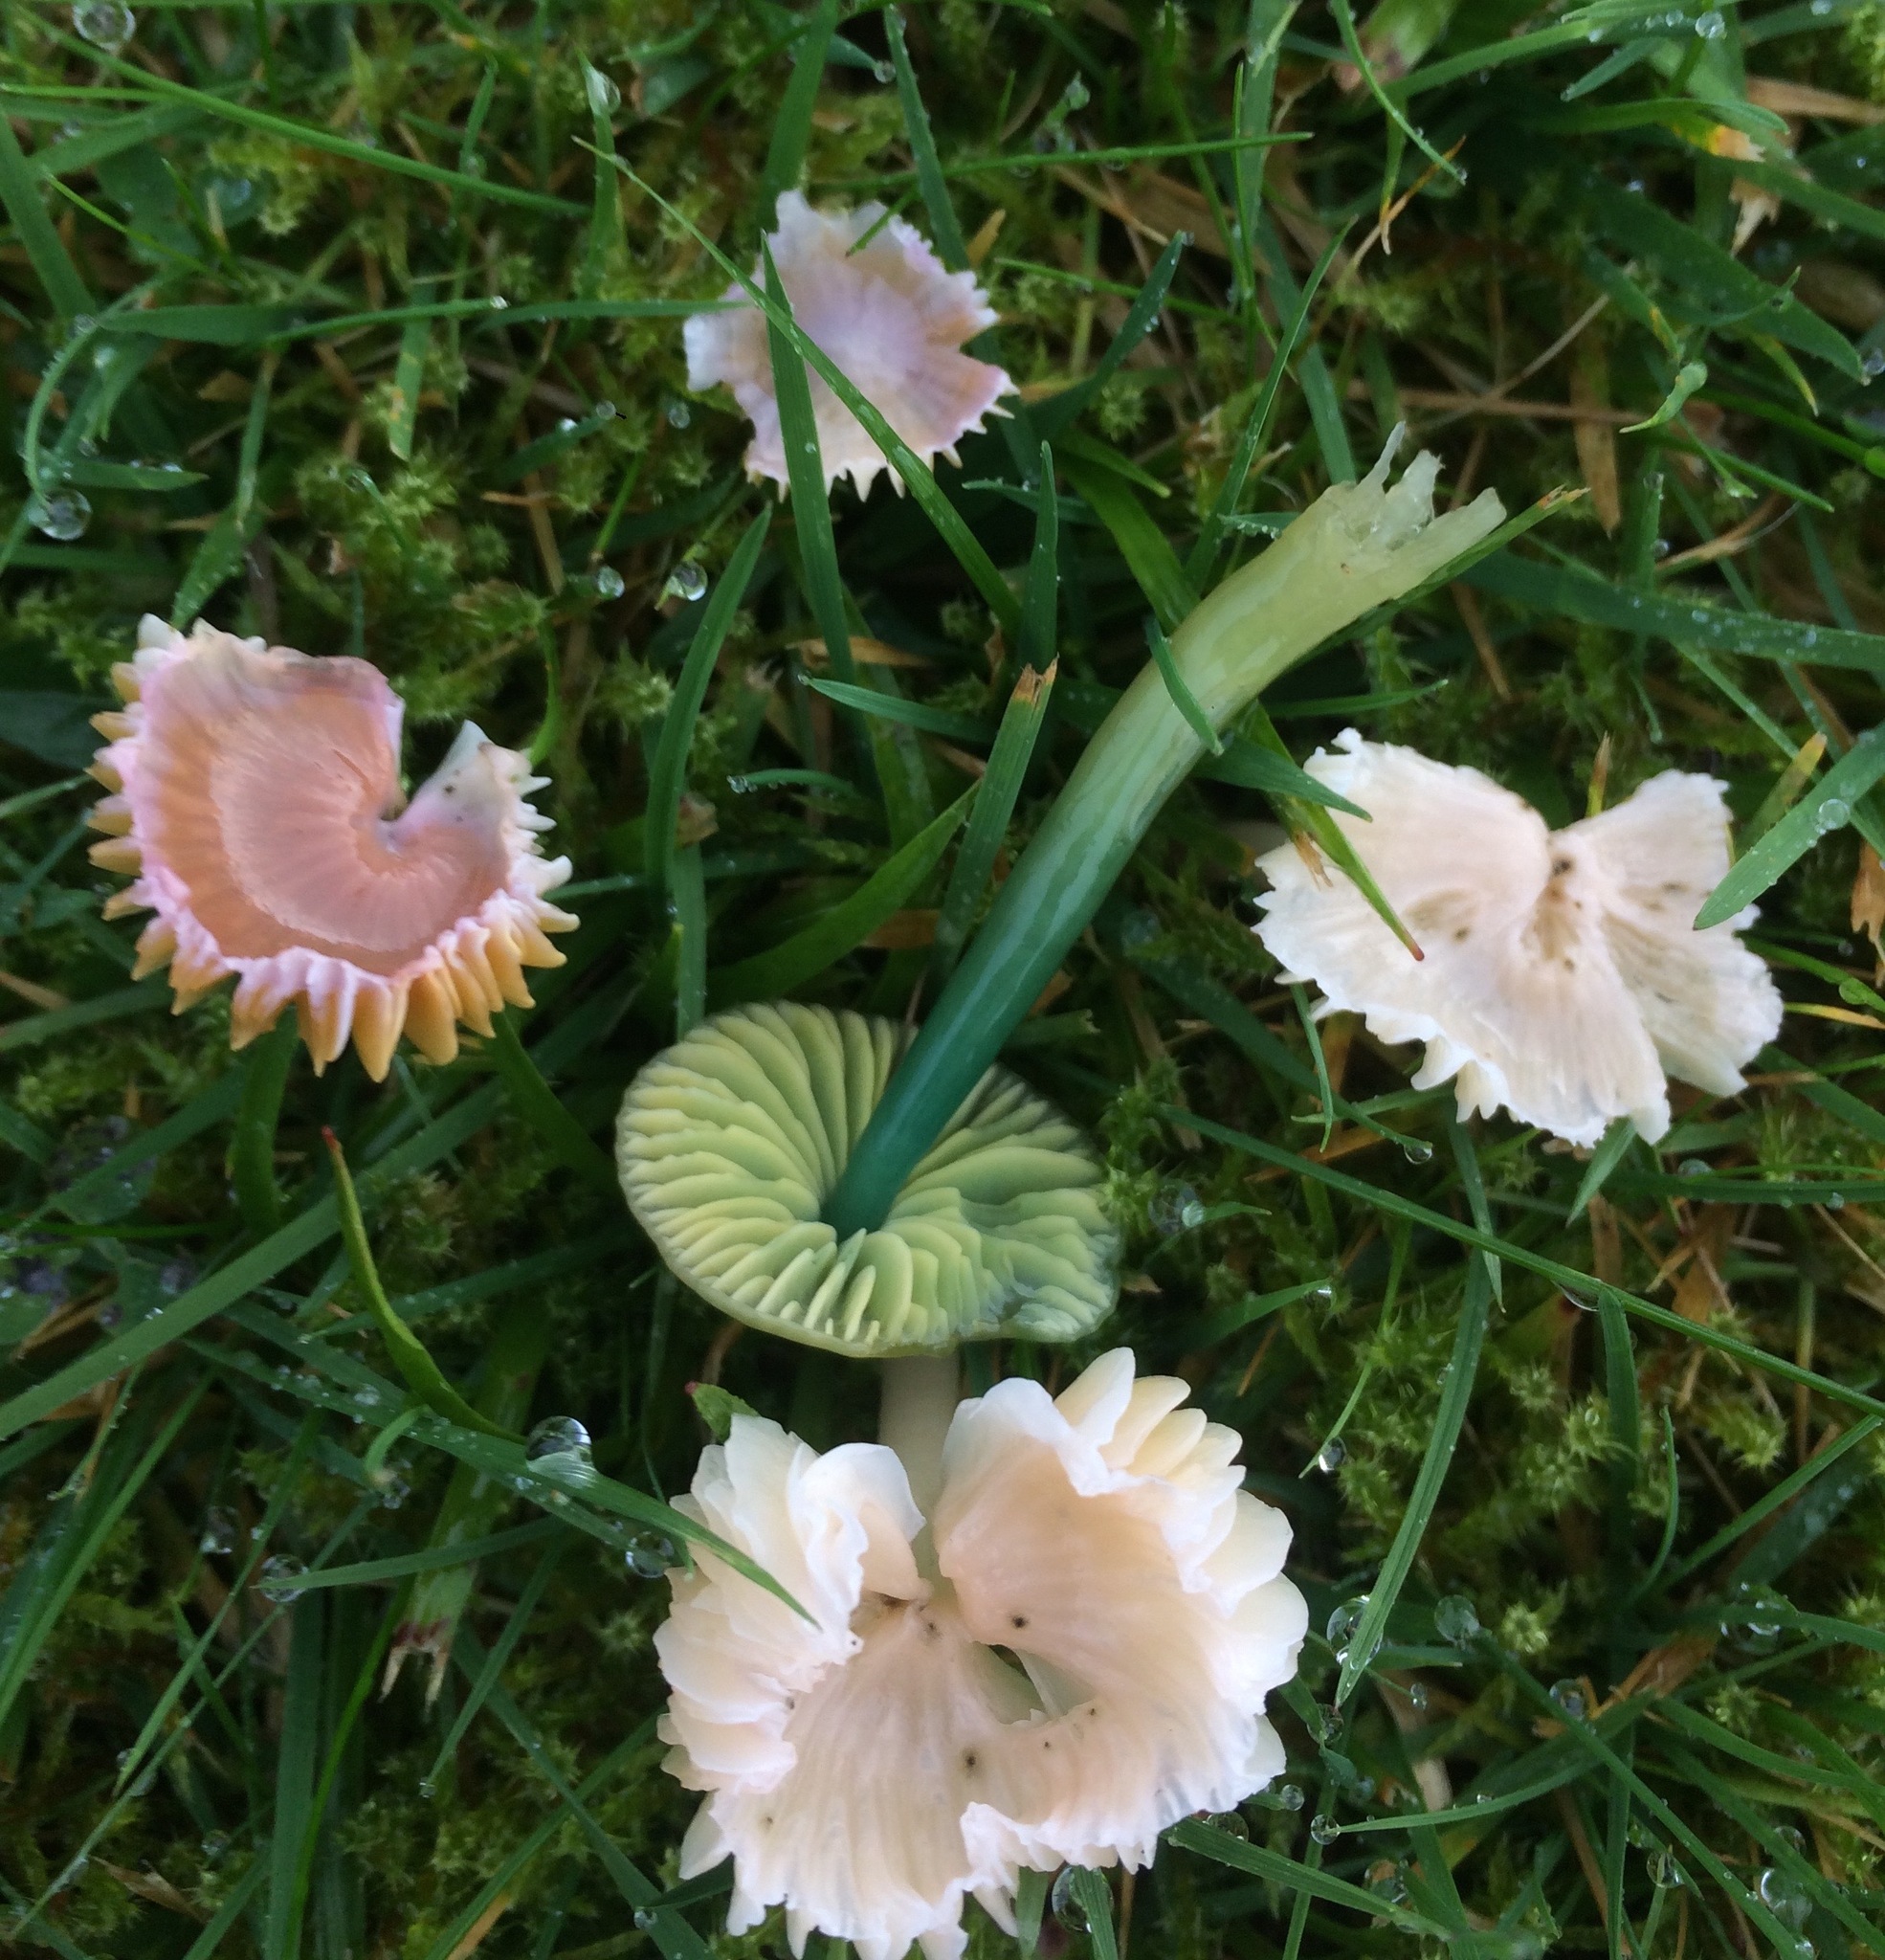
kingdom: Fungi
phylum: Basidiomycota
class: Agaricomycetes
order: Agaricales
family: Hygrophoraceae
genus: Gliophorus
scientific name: Gliophorus psittacinus
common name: Parrot wax-cap
